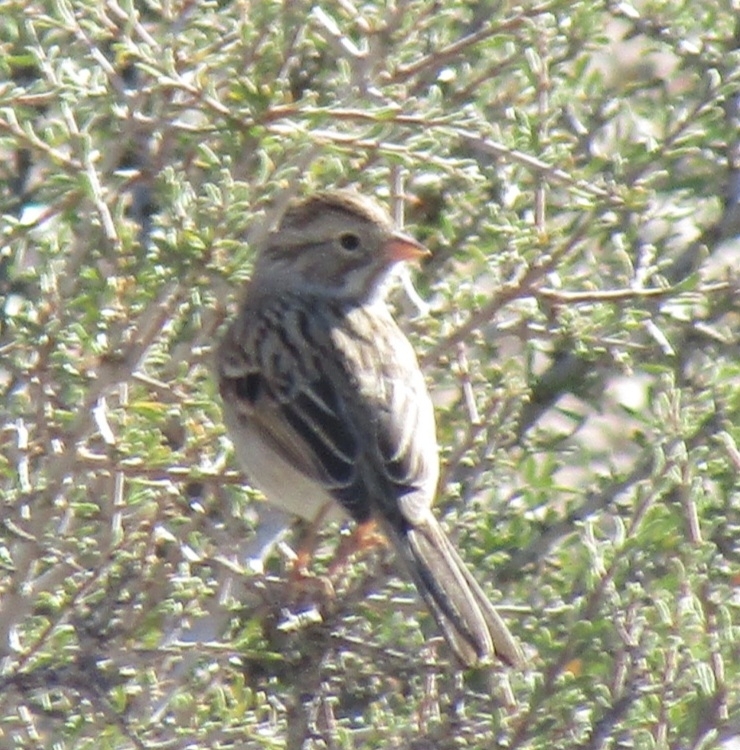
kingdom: Animalia
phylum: Chordata
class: Aves
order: Passeriformes
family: Passerellidae
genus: Spizella
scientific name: Spizella breweri
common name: Brewer's sparrow
